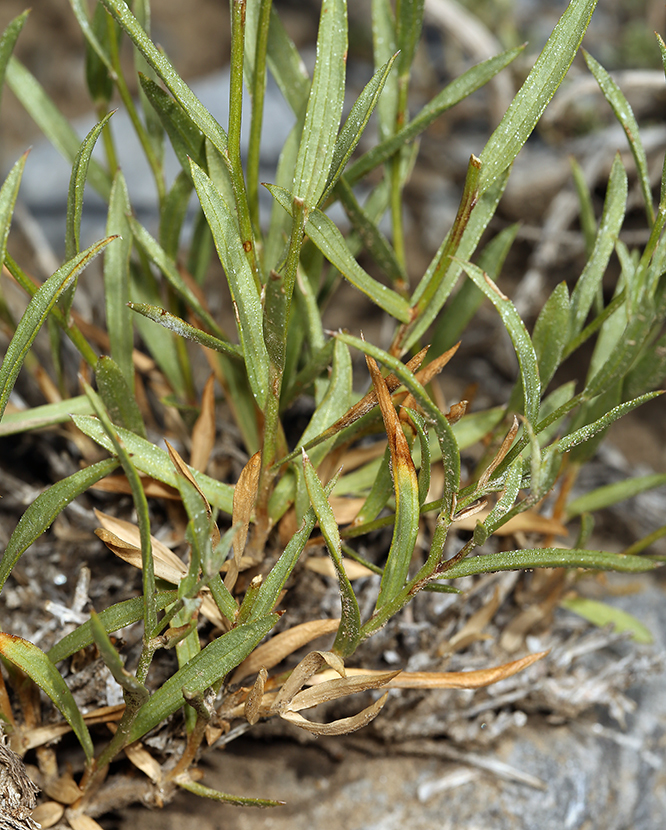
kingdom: Plantae
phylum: Tracheophyta
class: Magnoliopsida
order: Asterales
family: Asteraceae
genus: Cuniculotinus
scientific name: Cuniculotinus gramineus
